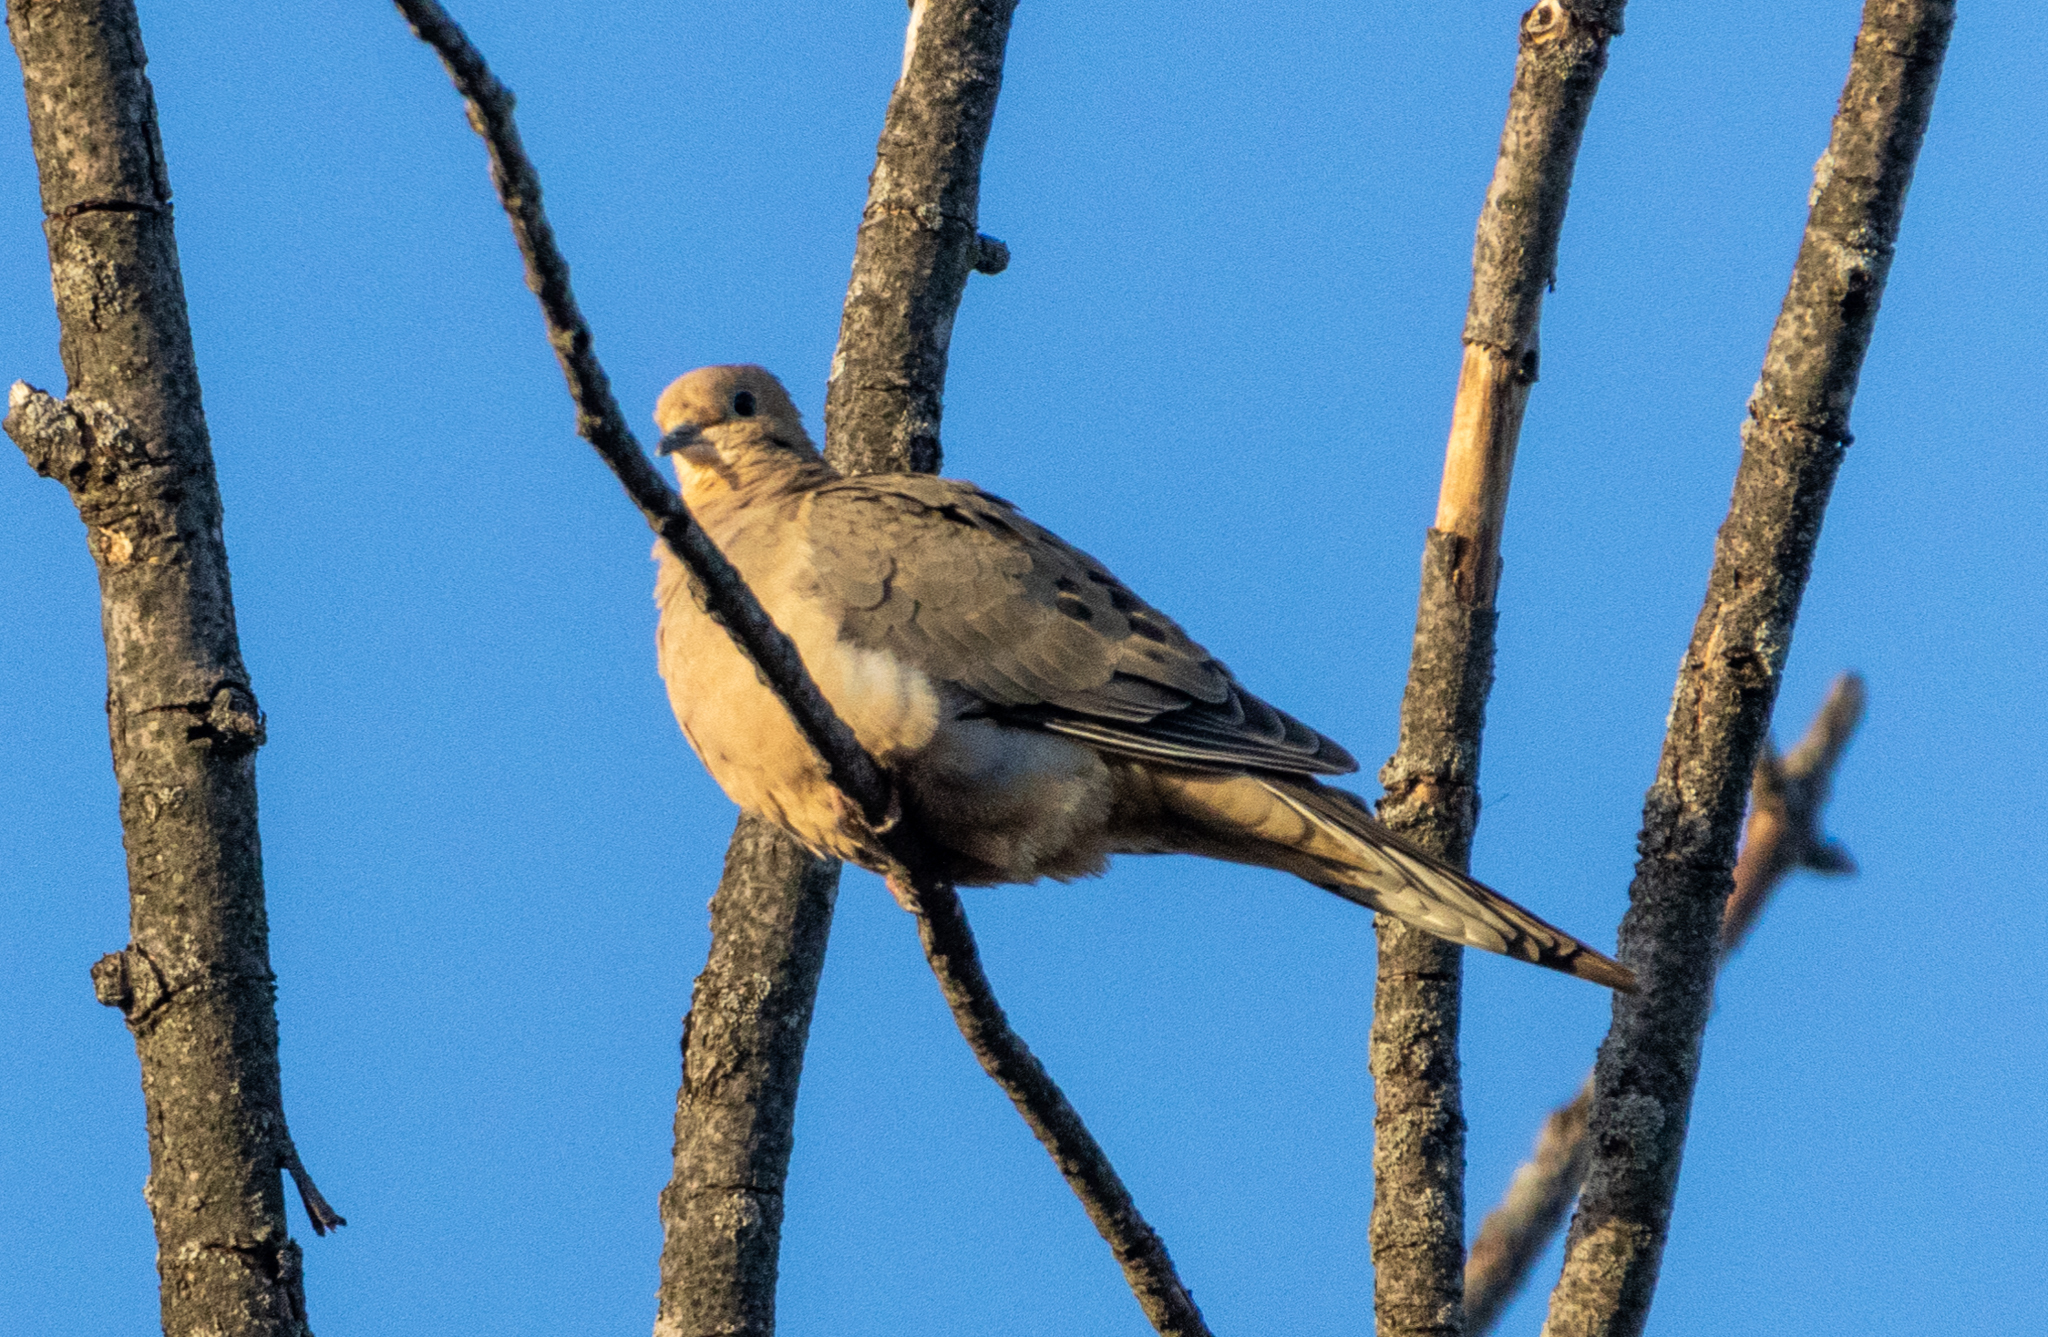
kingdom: Animalia
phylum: Chordata
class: Aves
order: Columbiformes
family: Columbidae
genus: Zenaida
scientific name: Zenaida macroura
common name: Mourning dove
